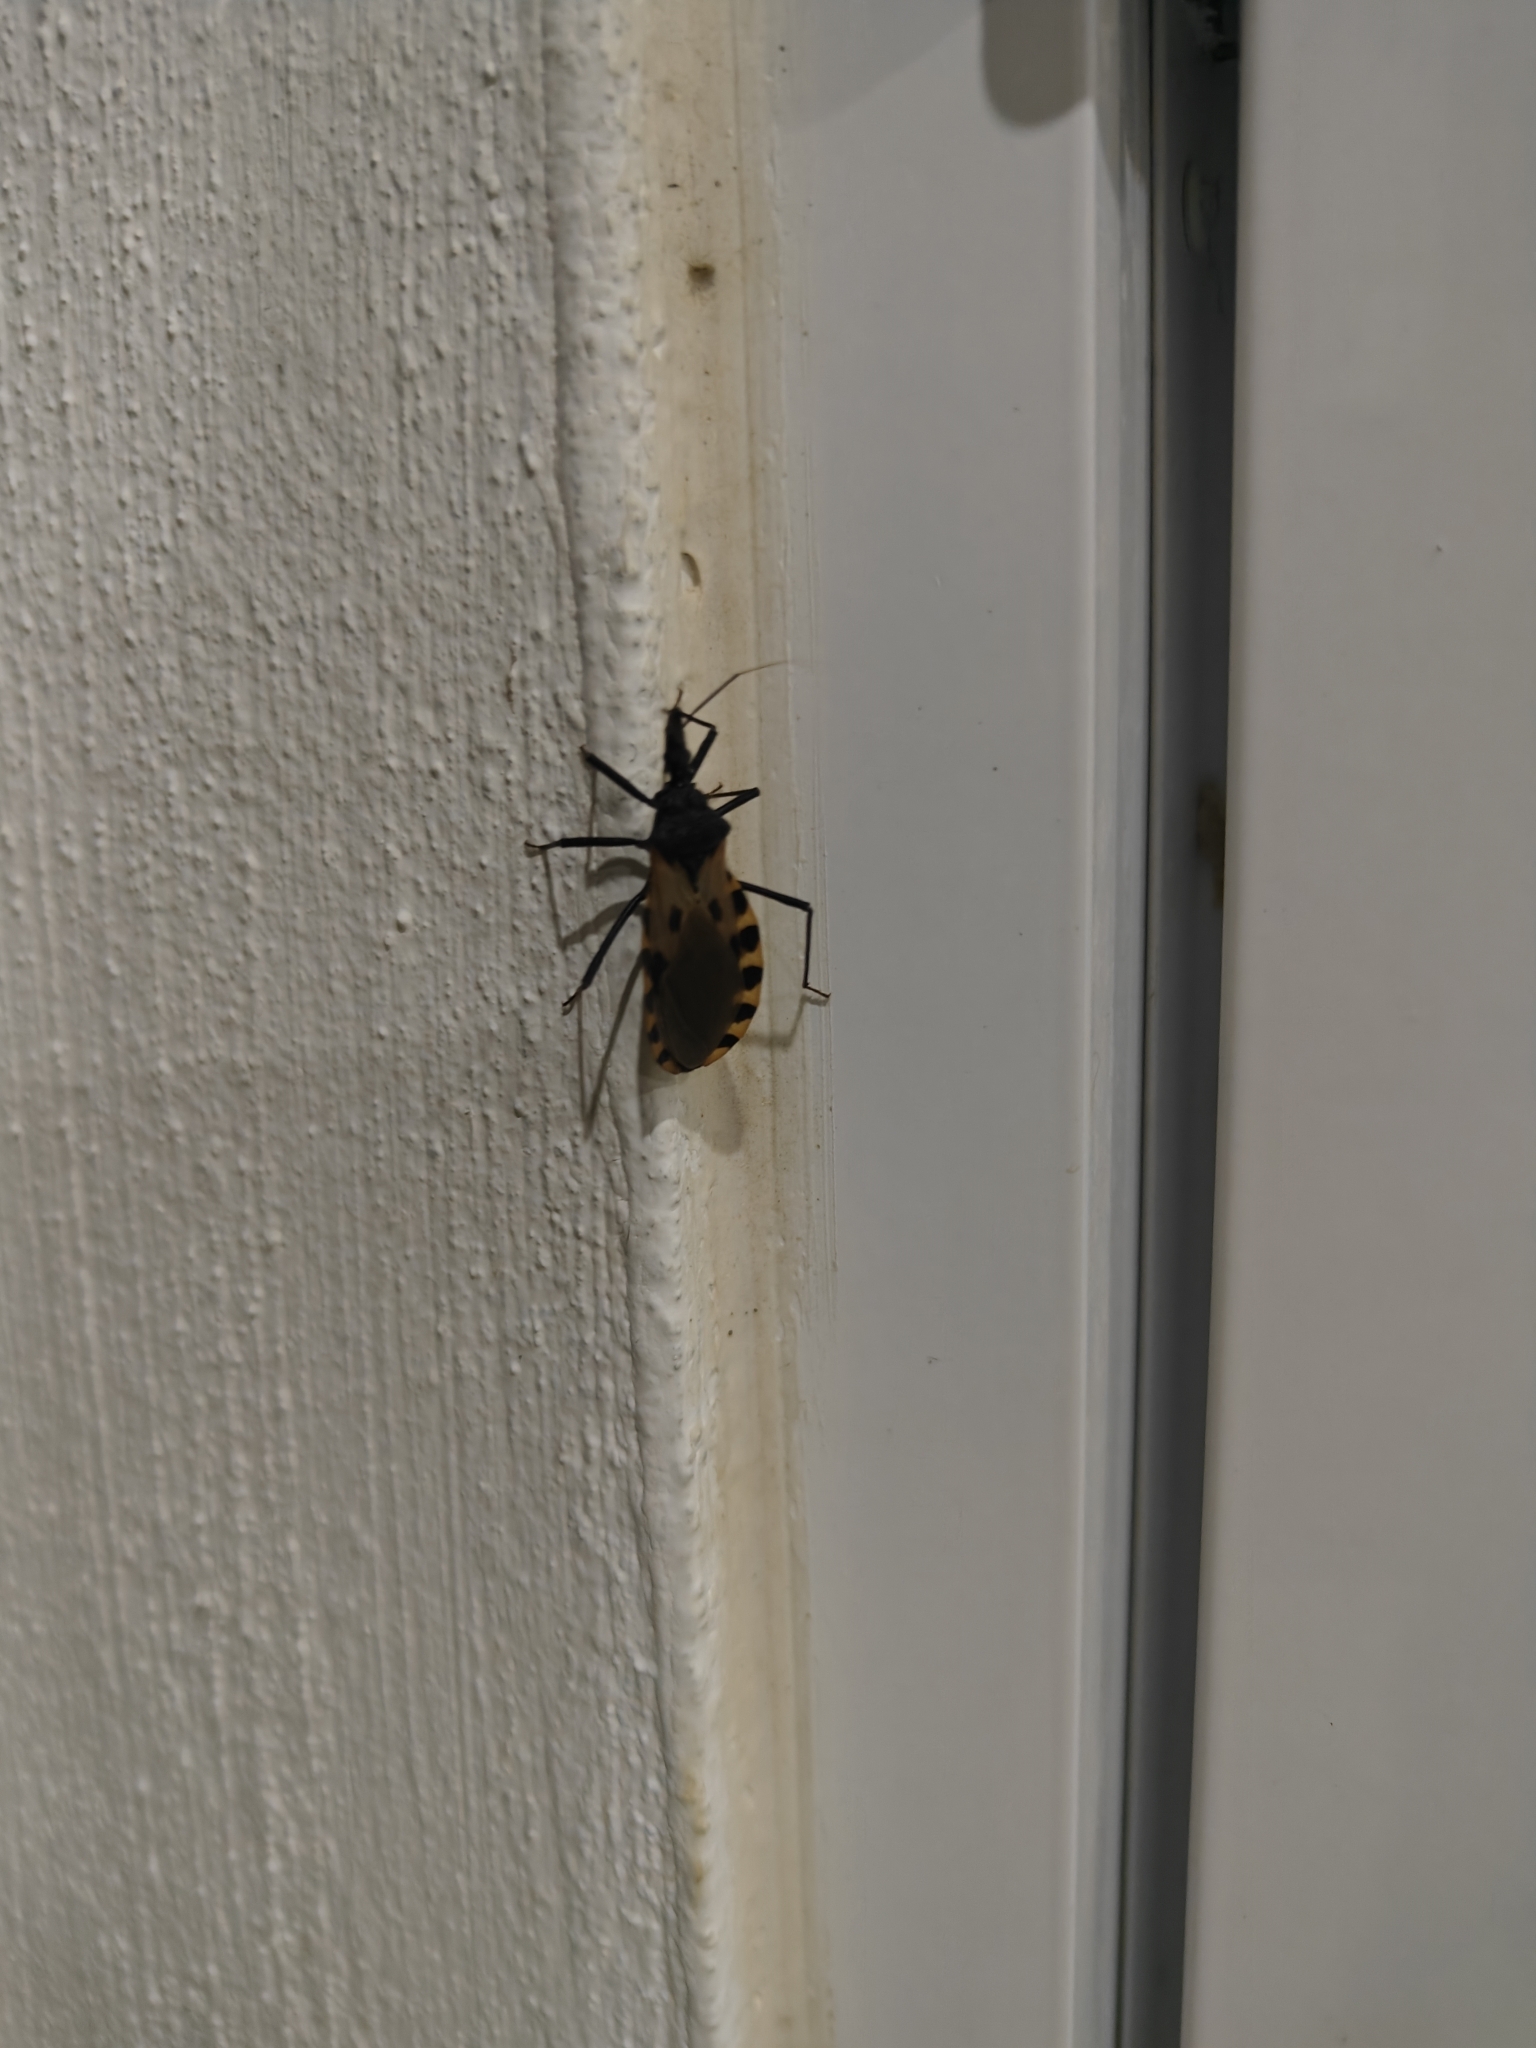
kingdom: Animalia
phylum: Arthropoda
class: Insecta
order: Hemiptera
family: Reduviidae
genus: Meccus
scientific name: Meccus dimidiatus
